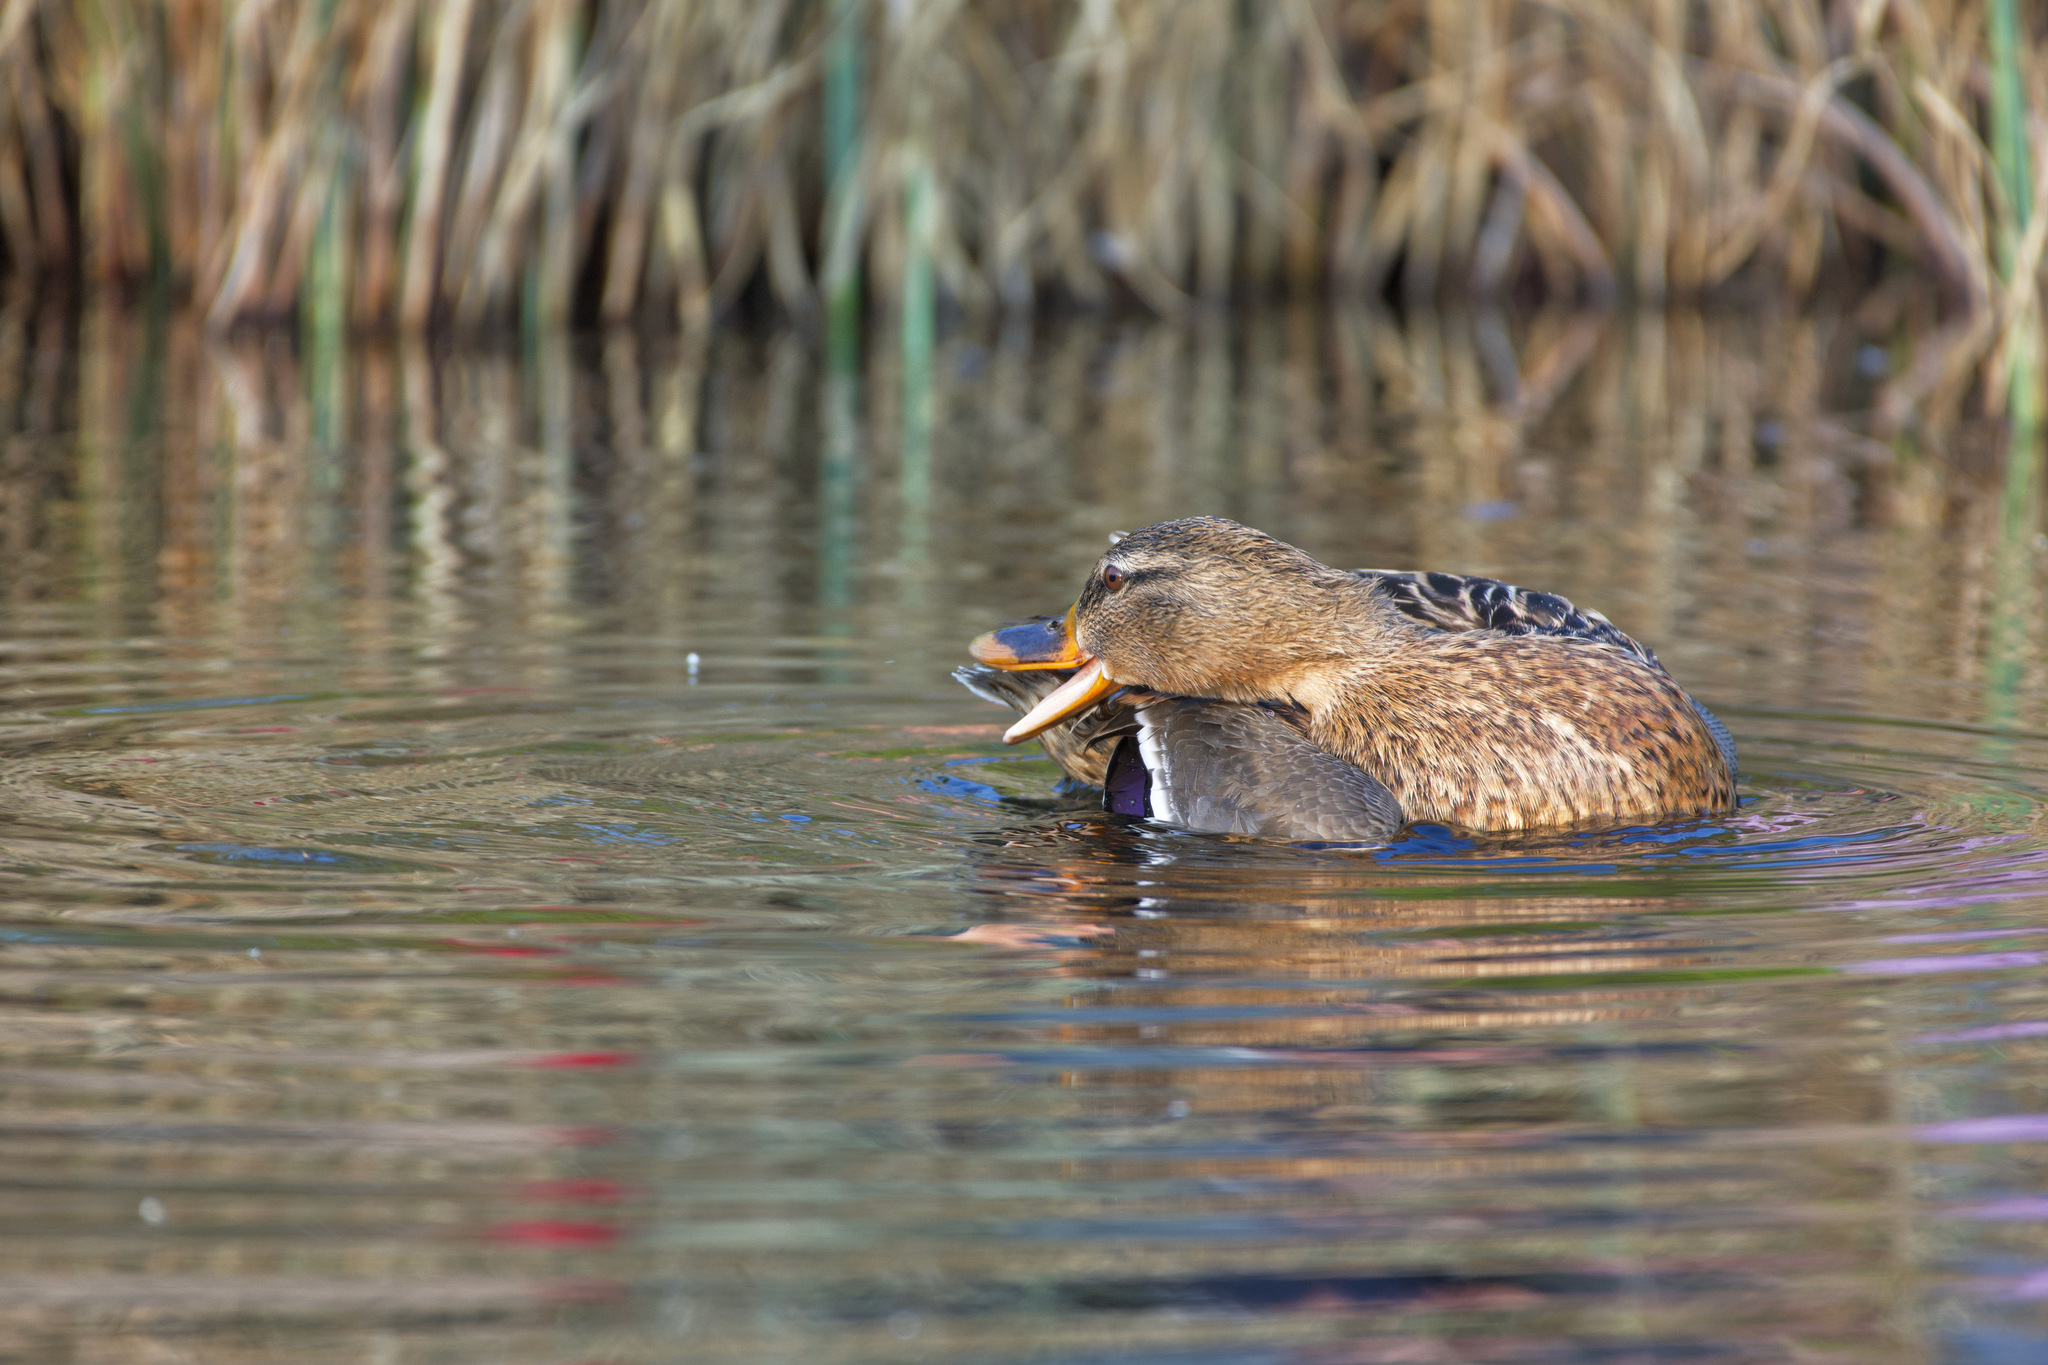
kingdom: Animalia
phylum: Chordata
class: Aves
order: Anseriformes
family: Anatidae
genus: Anas
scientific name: Anas platyrhynchos
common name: Mallard
